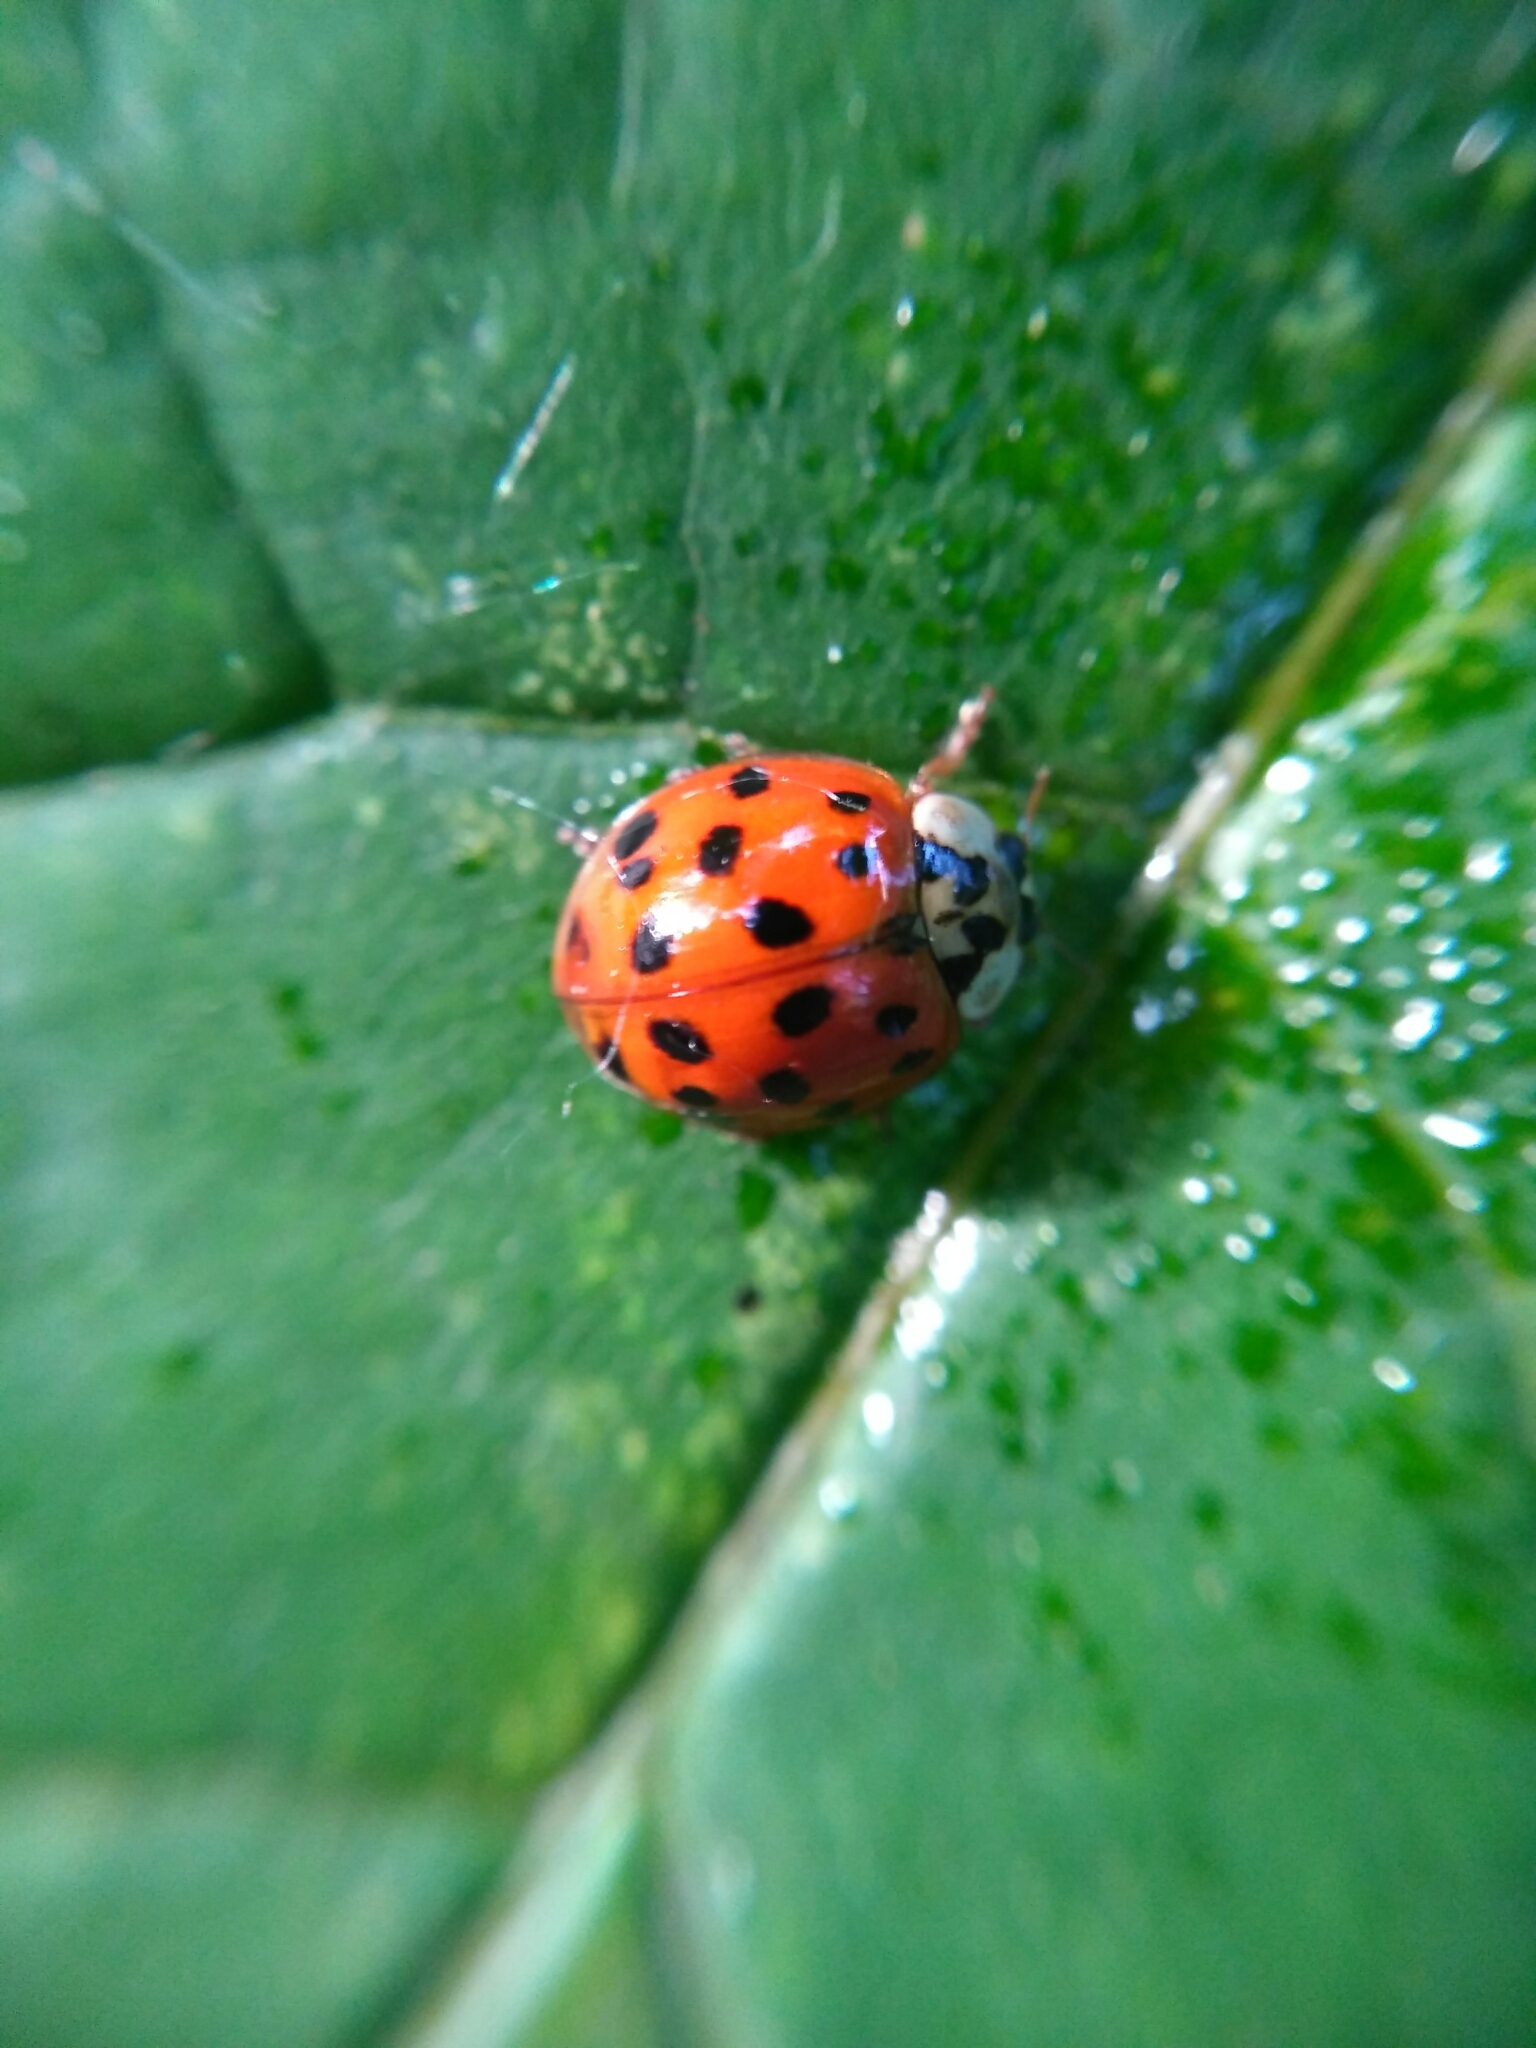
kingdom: Animalia
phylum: Arthropoda
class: Insecta
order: Coleoptera
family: Coccinellidae
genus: Harmonia
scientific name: Harmonia axyridis
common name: Harlequin ladybird
